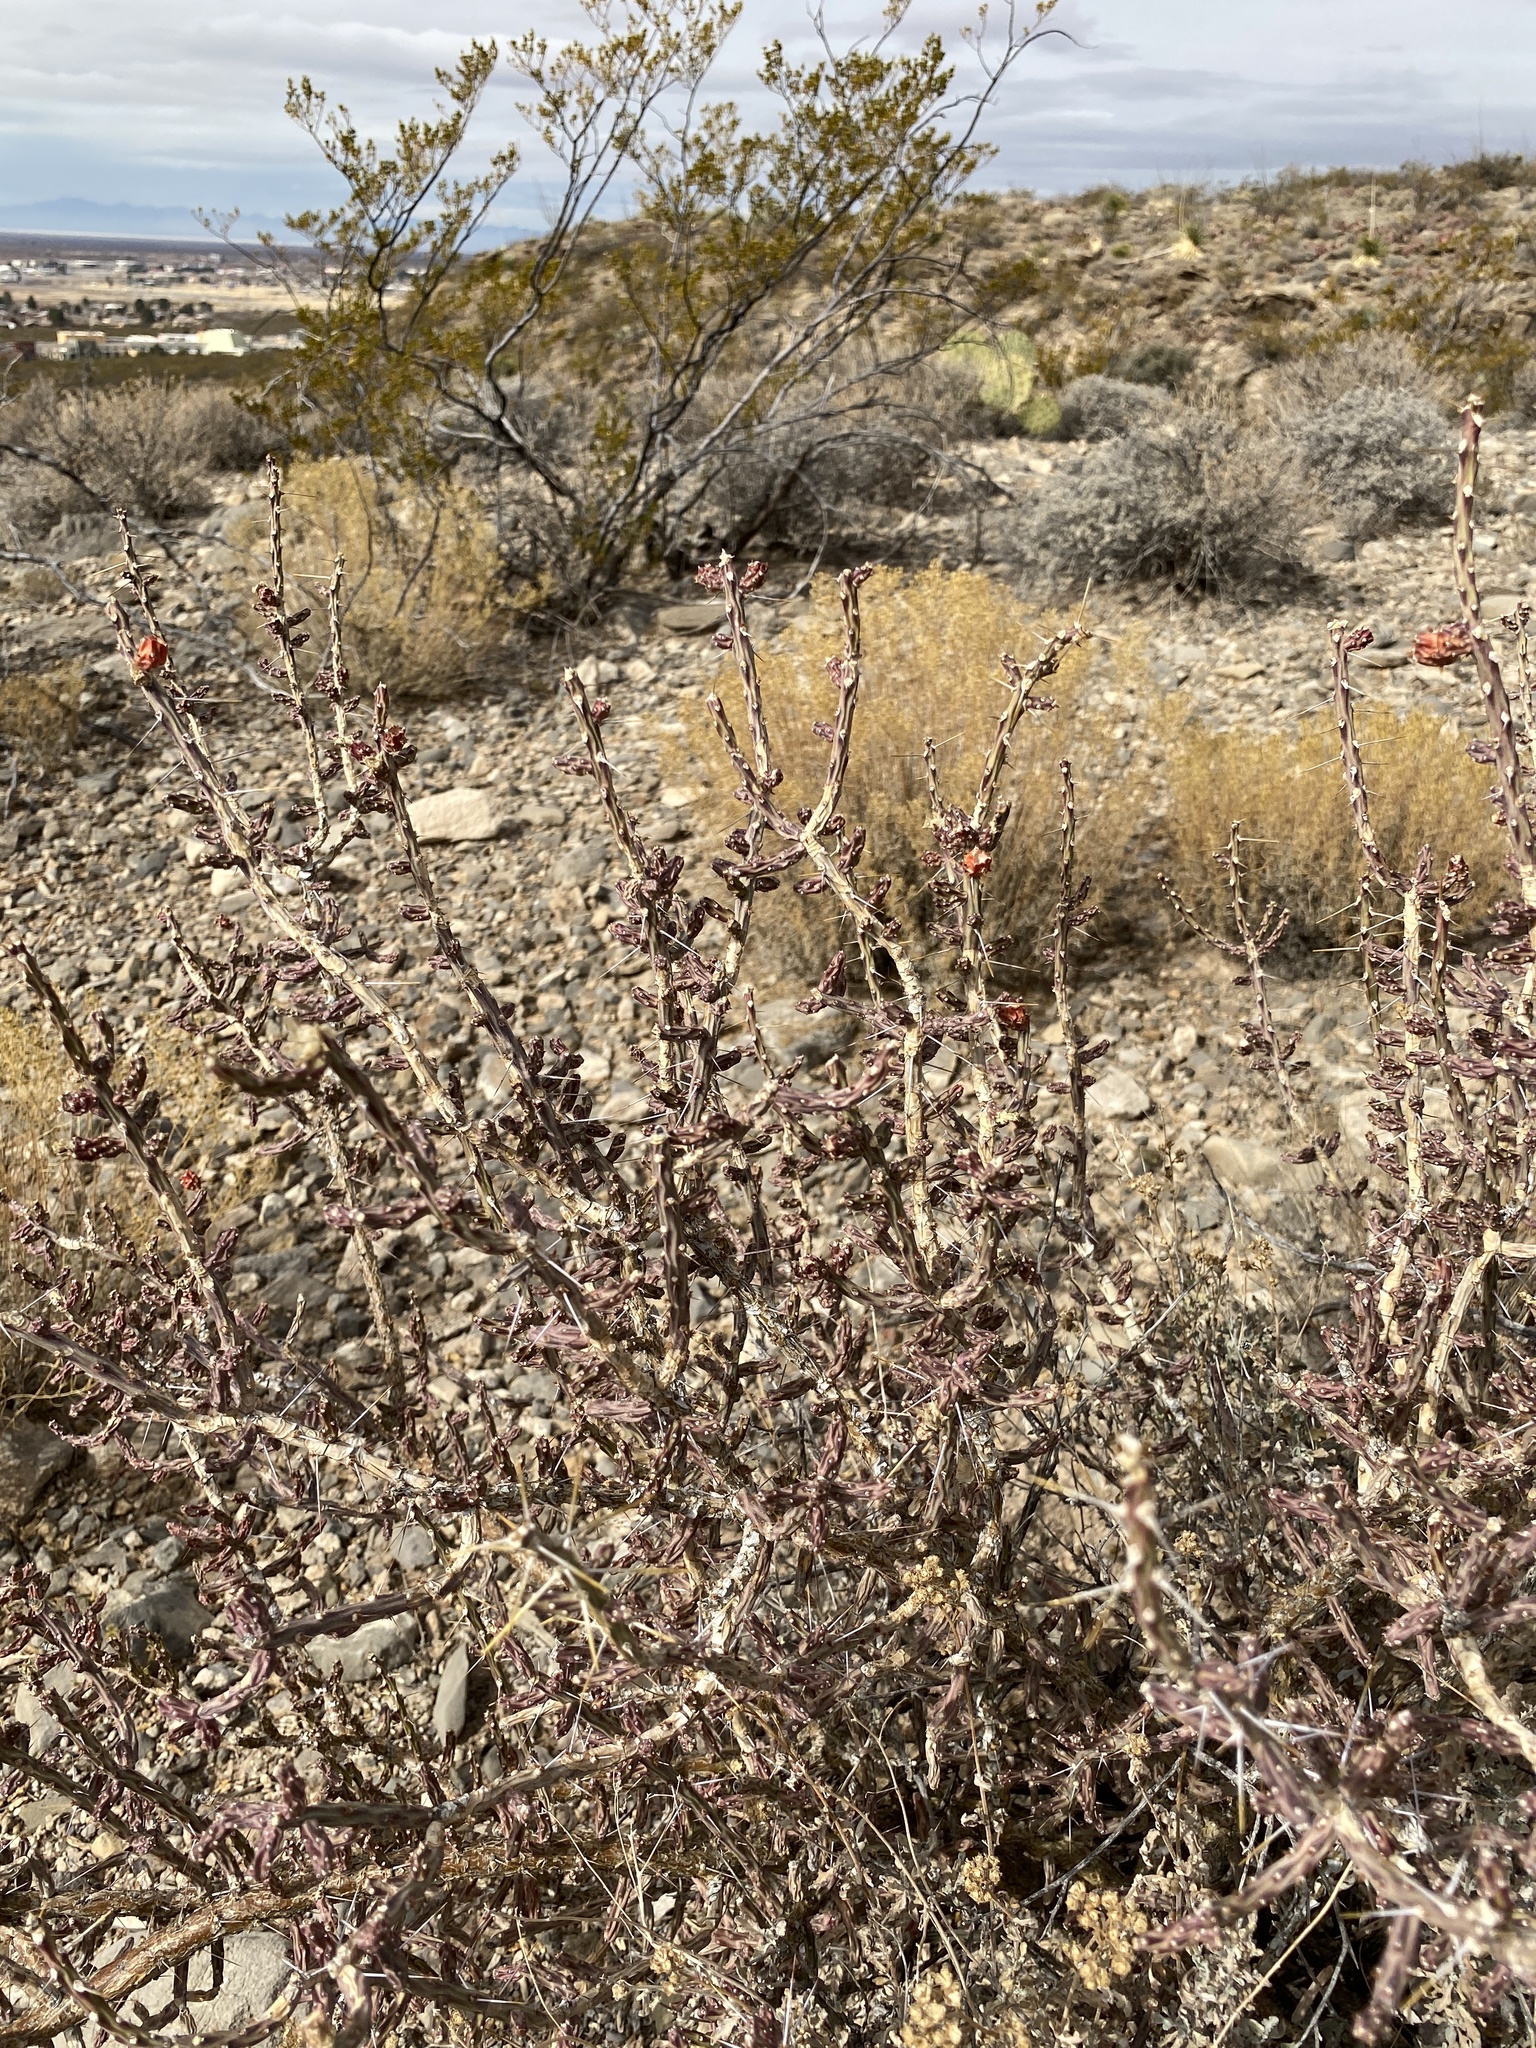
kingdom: Plantae
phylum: Tracheophyta
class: Magnoliopsida
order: Caryophyllales
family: Cactaceae
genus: Cylindropuntia
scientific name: Cylindropuntia leptocaulis
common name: Christmas cactus
